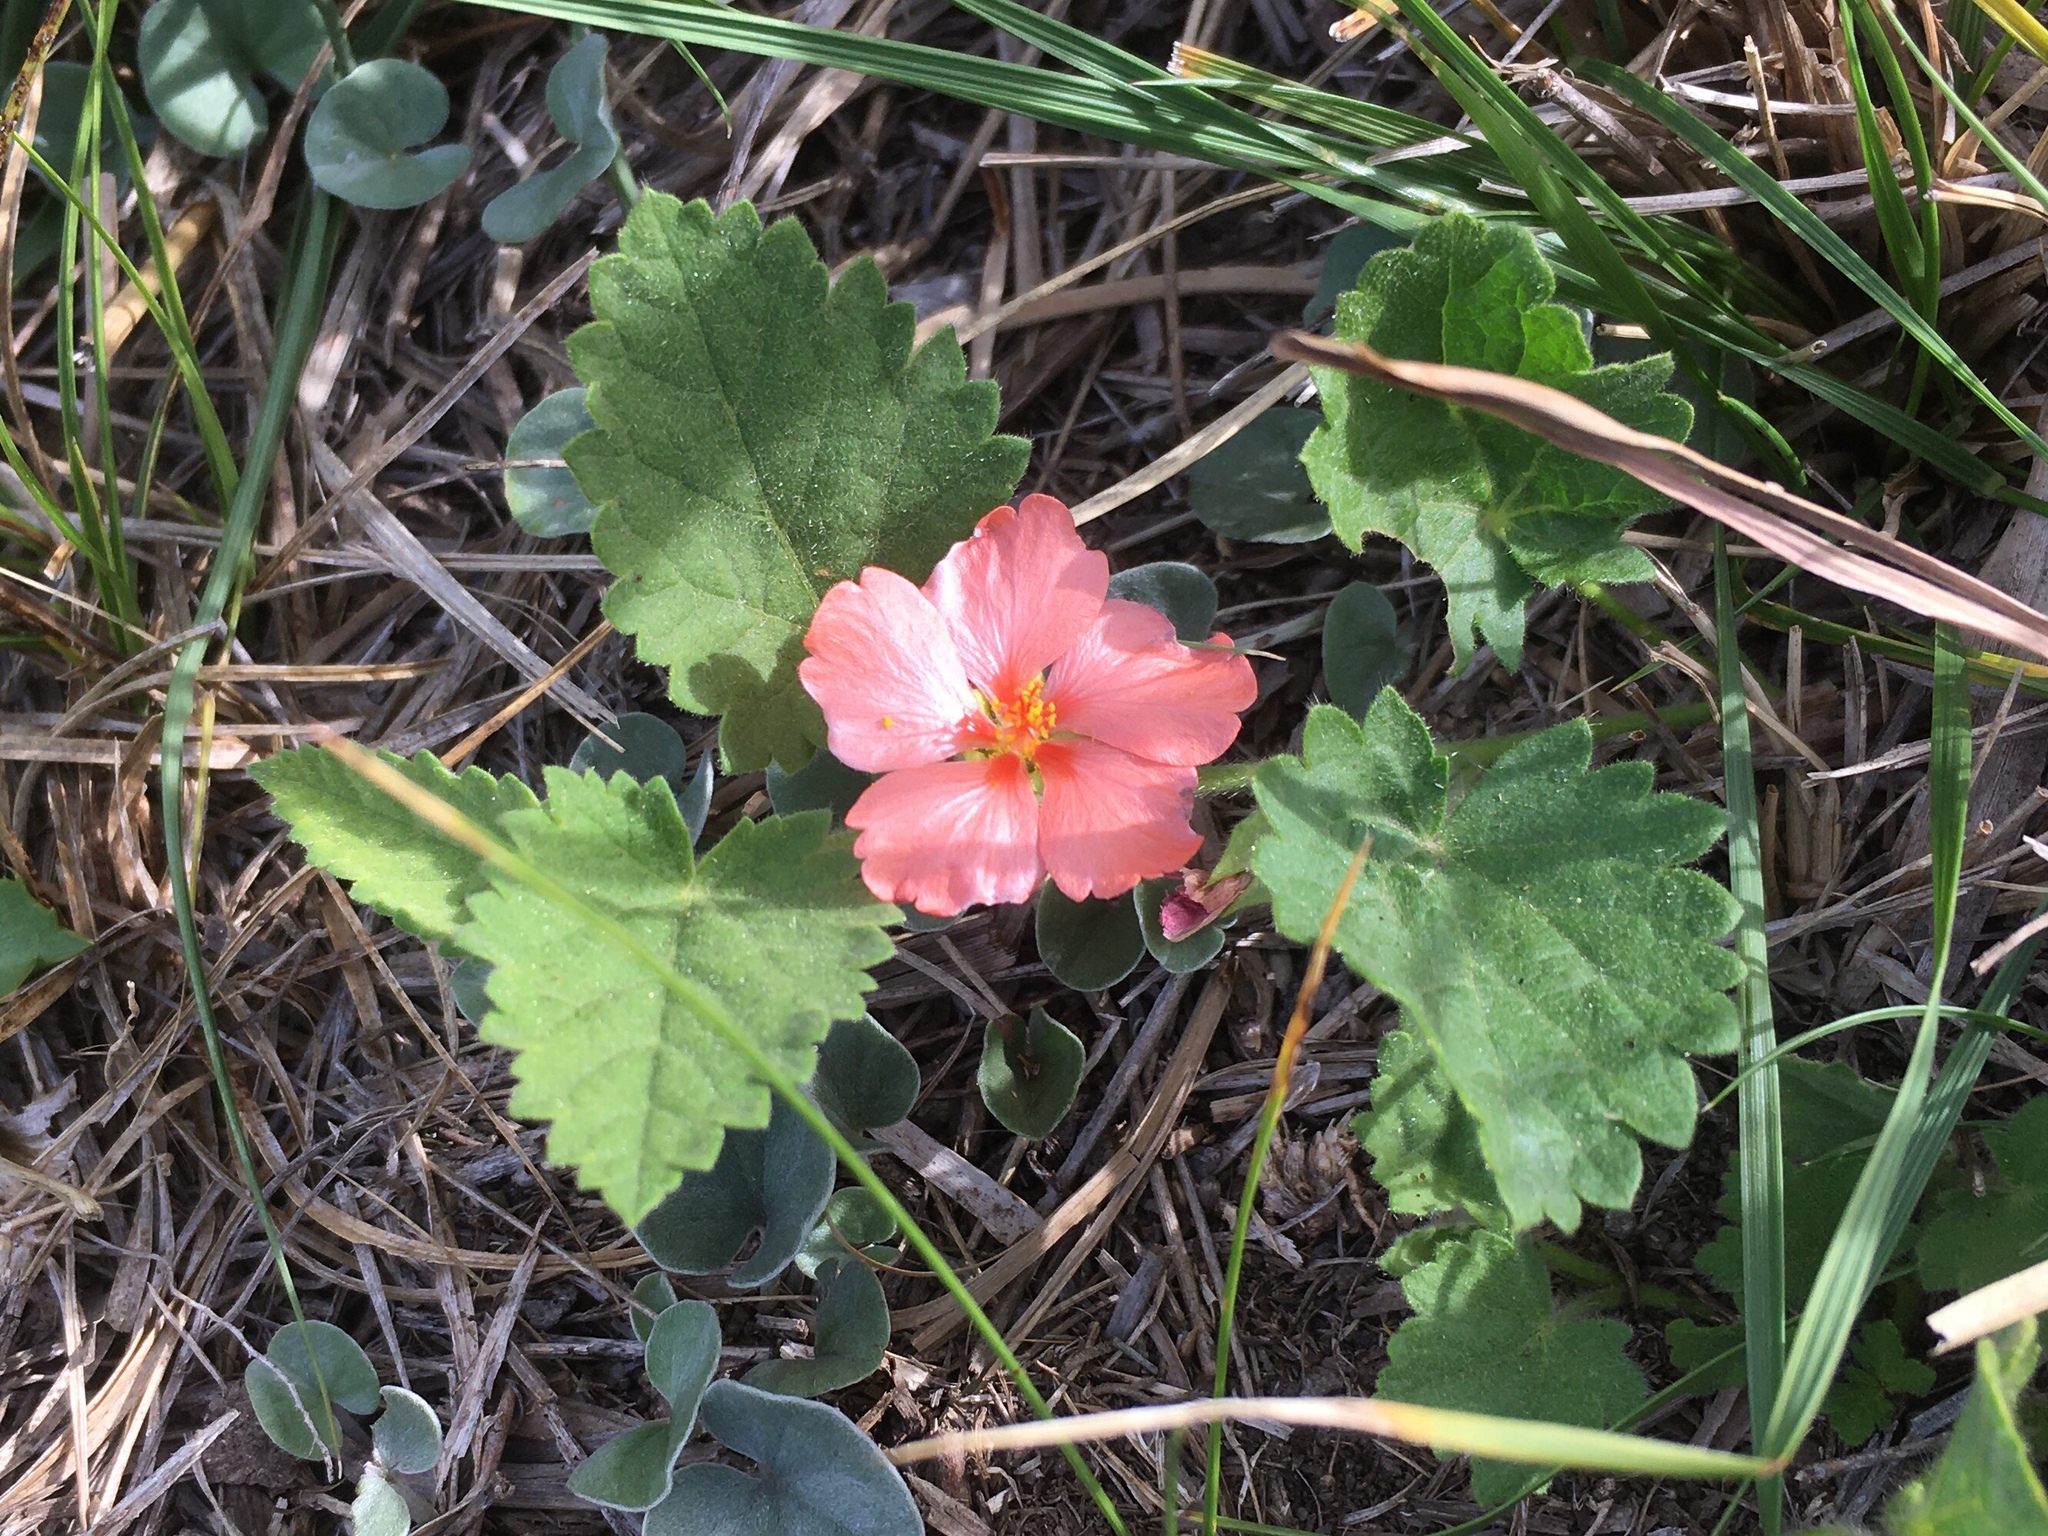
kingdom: Plantae
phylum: Tracheophyta
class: Magnoliopsida
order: Malvales
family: Malvaceae
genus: Krapovickasia
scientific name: Krapovickasia flavescens
